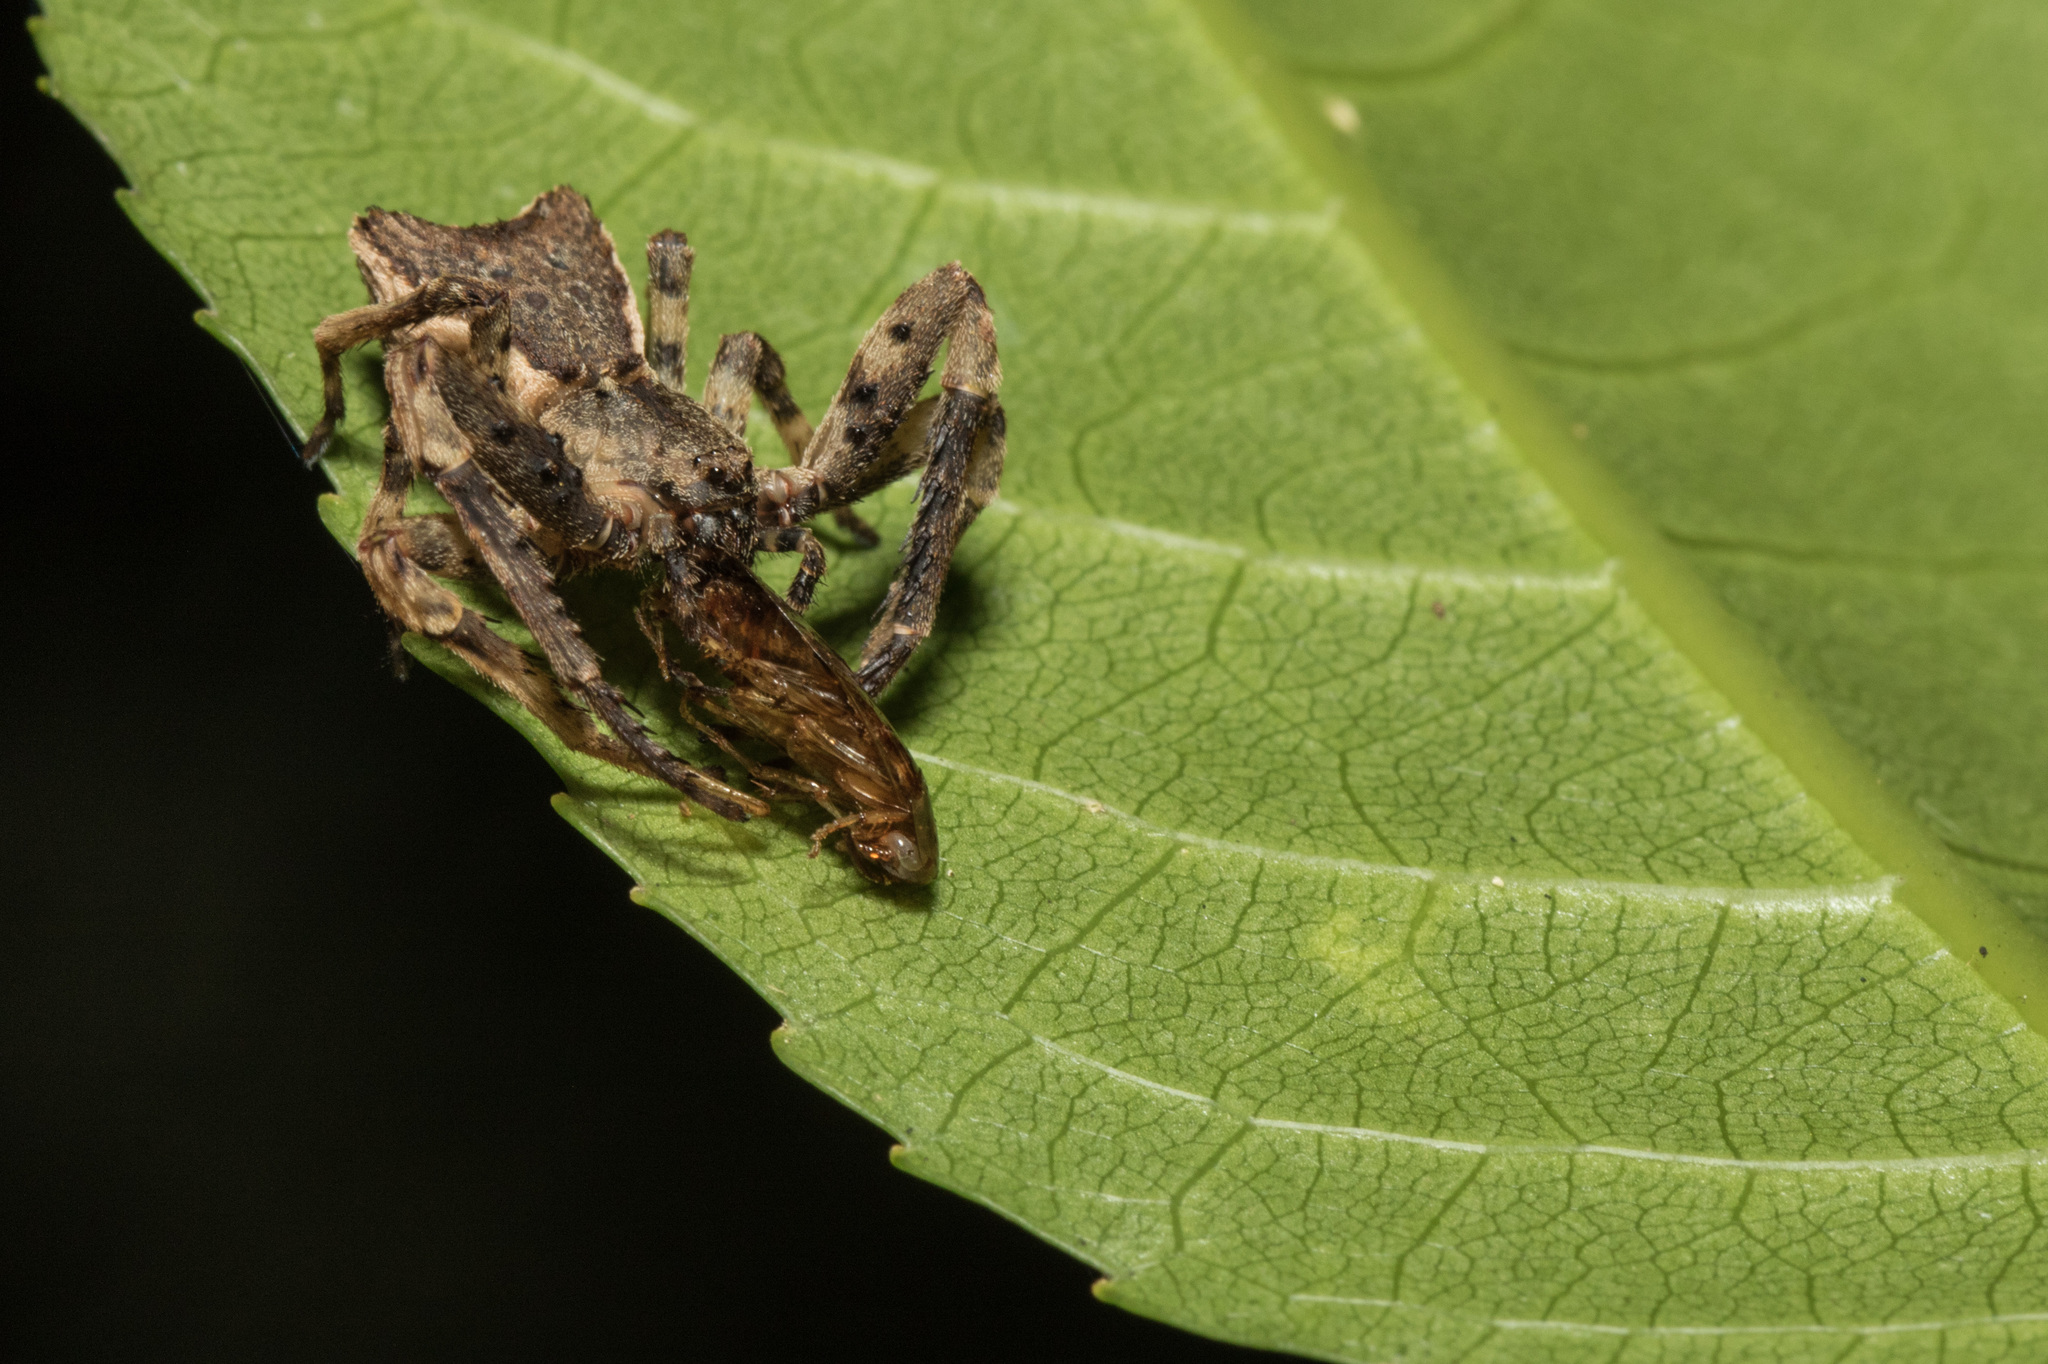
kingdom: Animalia
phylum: Arthropoda
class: Arachnida
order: Araneae
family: Thomisidae
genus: Sidymella
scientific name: Sidymella angularis
